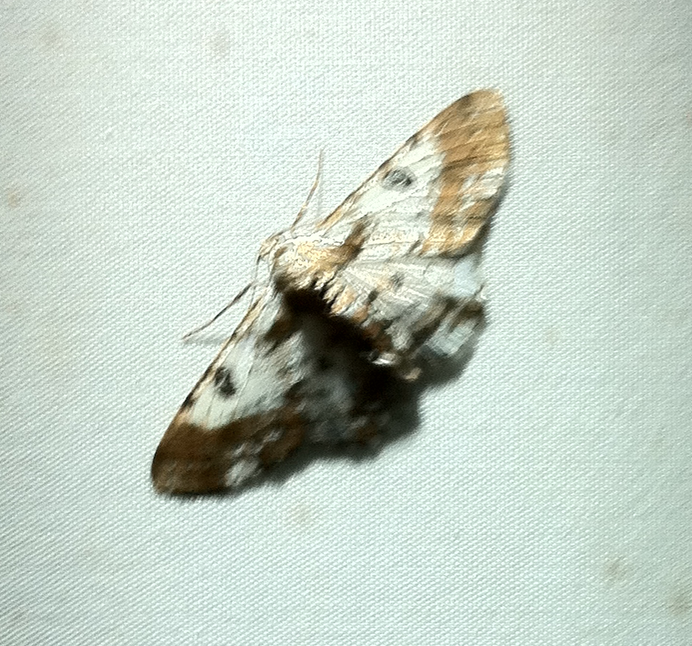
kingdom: Animalia
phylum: Arthropoda
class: Insecta
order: Lepidoptera
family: Geometridae
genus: Iridopsis
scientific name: Iridopsis validaria
